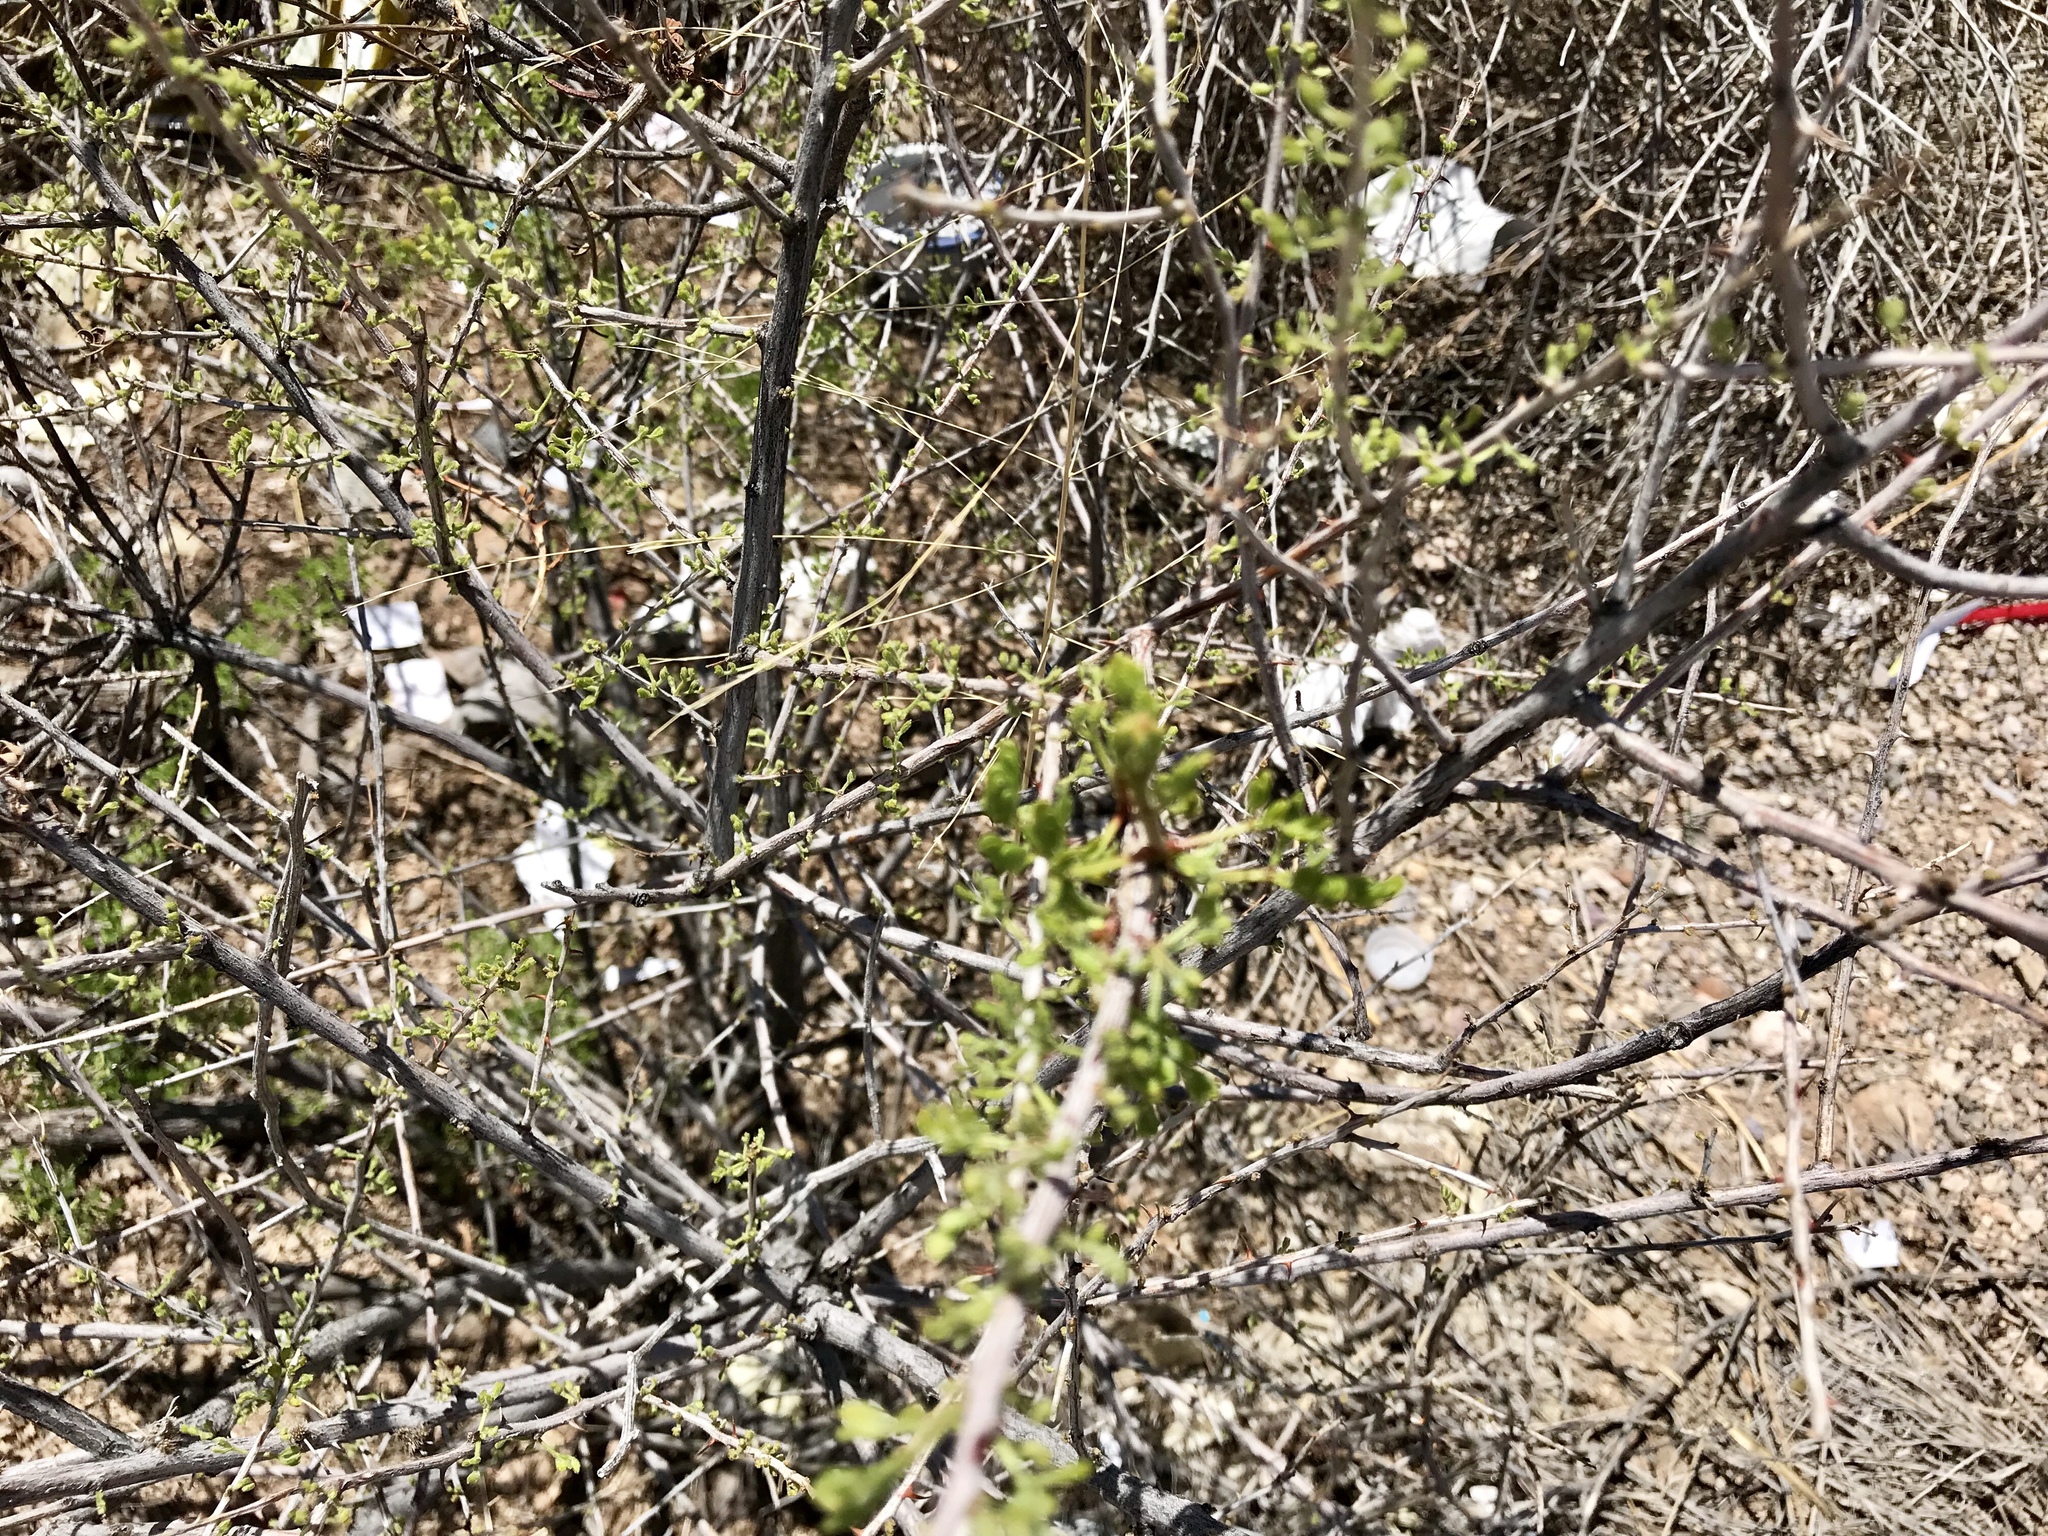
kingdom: Plantae
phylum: Tracheophyta
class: Magnoliopsida
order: Fabales
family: Fabaceae
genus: Senegalia
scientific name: Senegalia greggii
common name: Texas-mimosa
